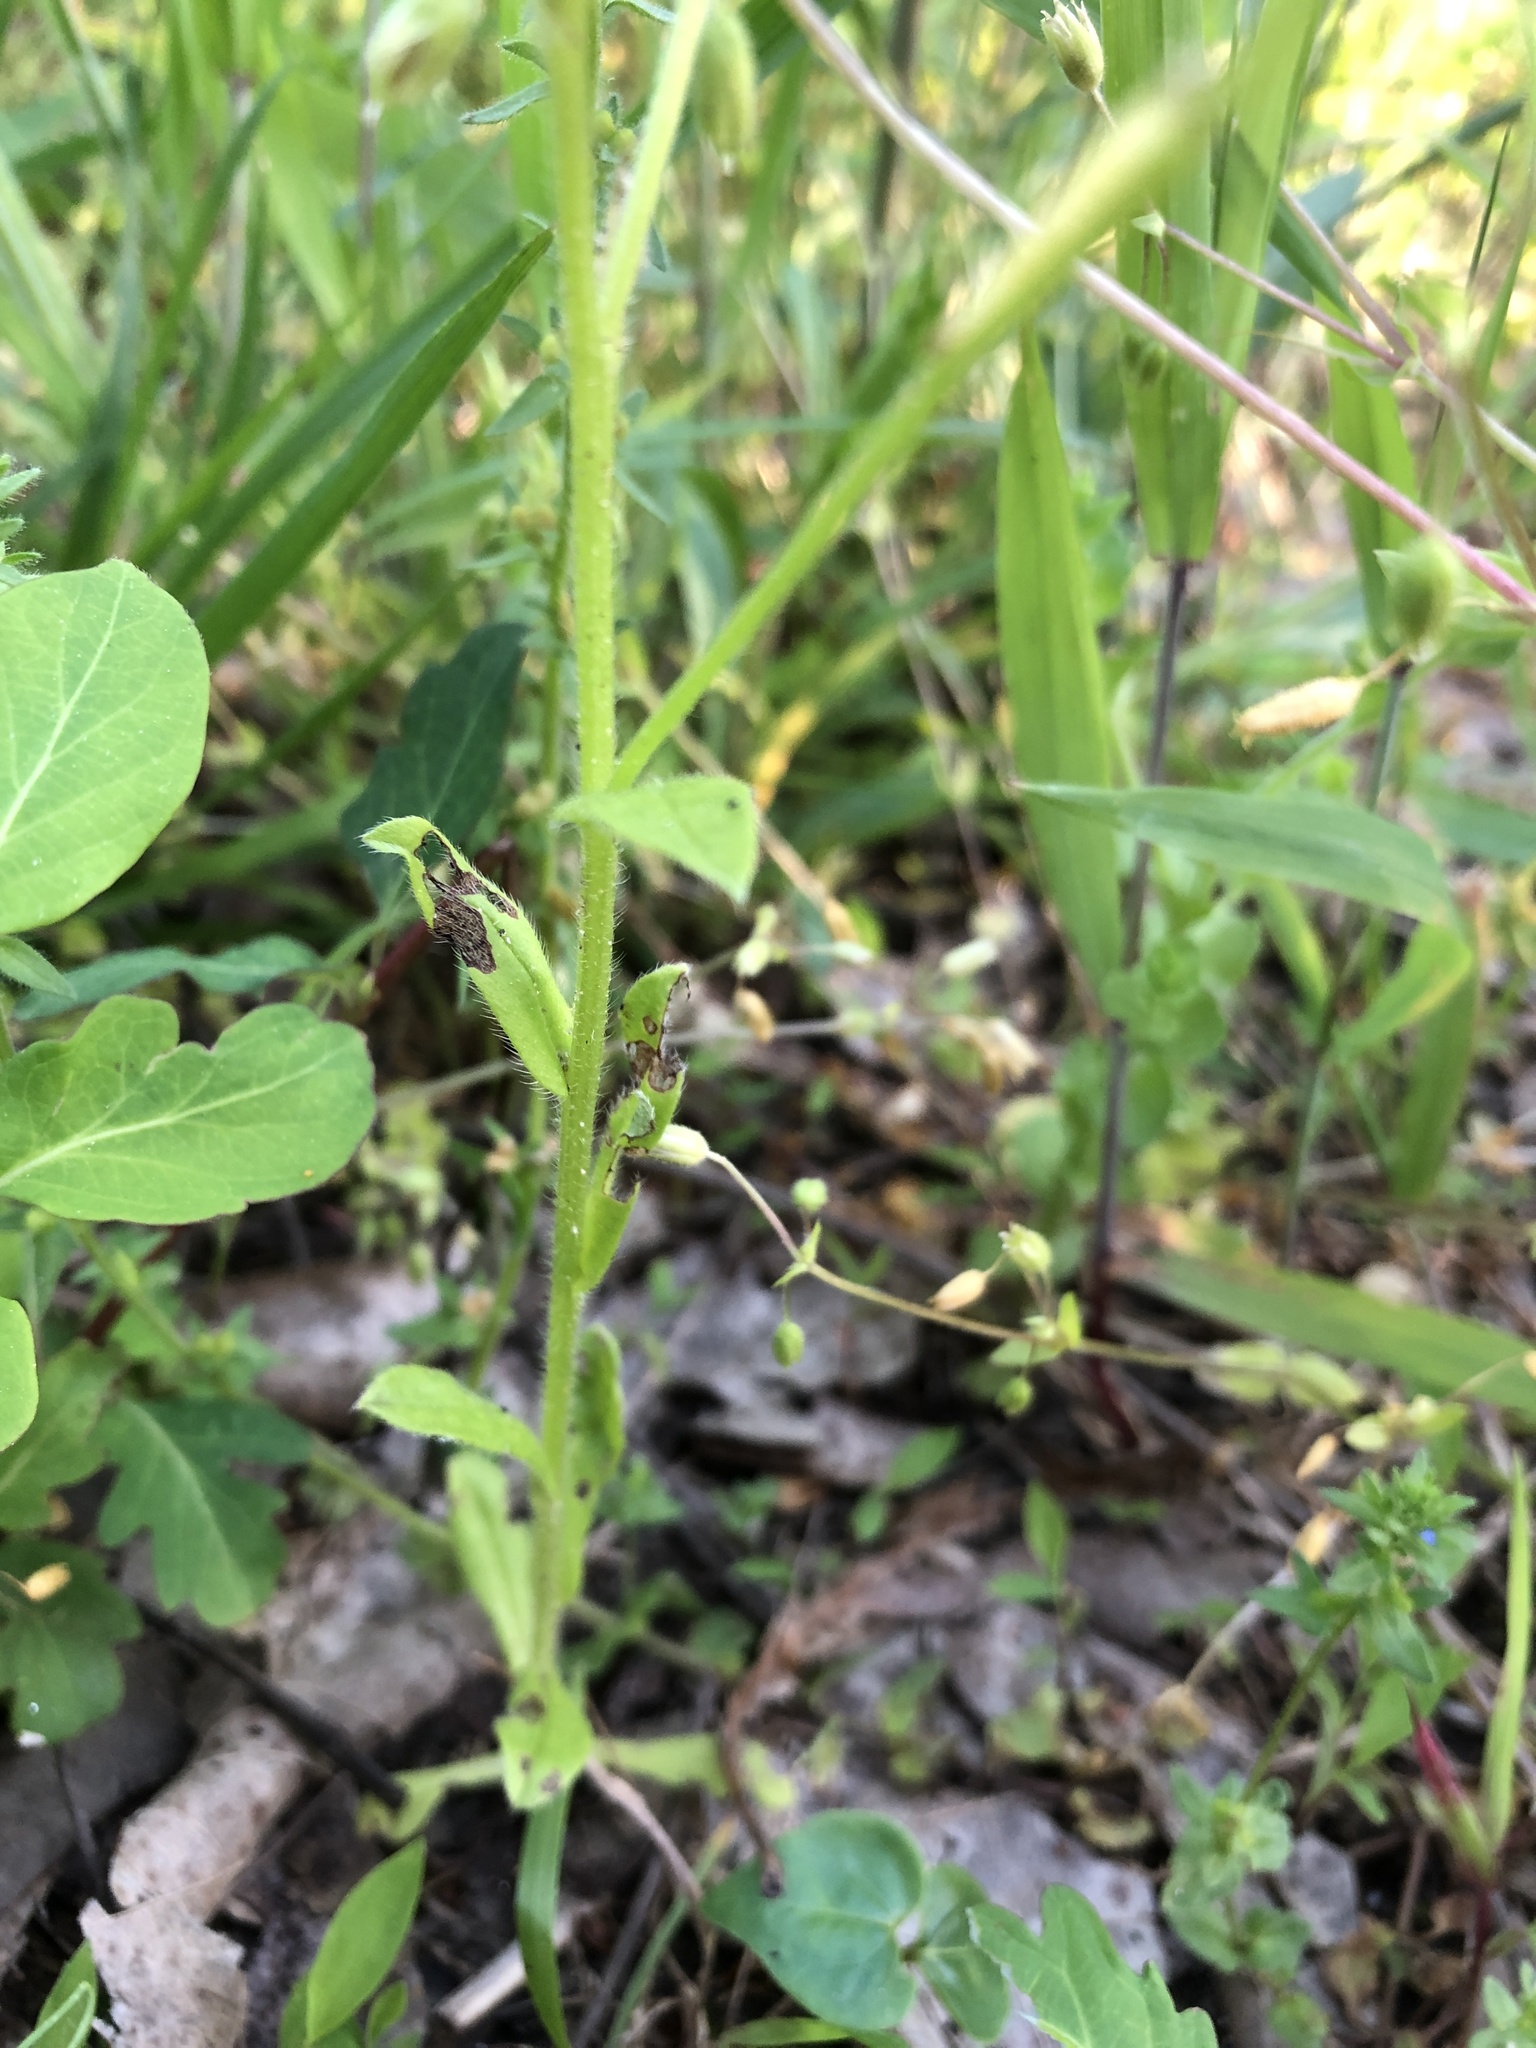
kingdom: Plantae
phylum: Tracheophyta
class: Magnoliopsida
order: Boraginales
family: Boraginaceae
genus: Myosotis
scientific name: Myosotis macrosperma
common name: Large-seed forget-me-not
